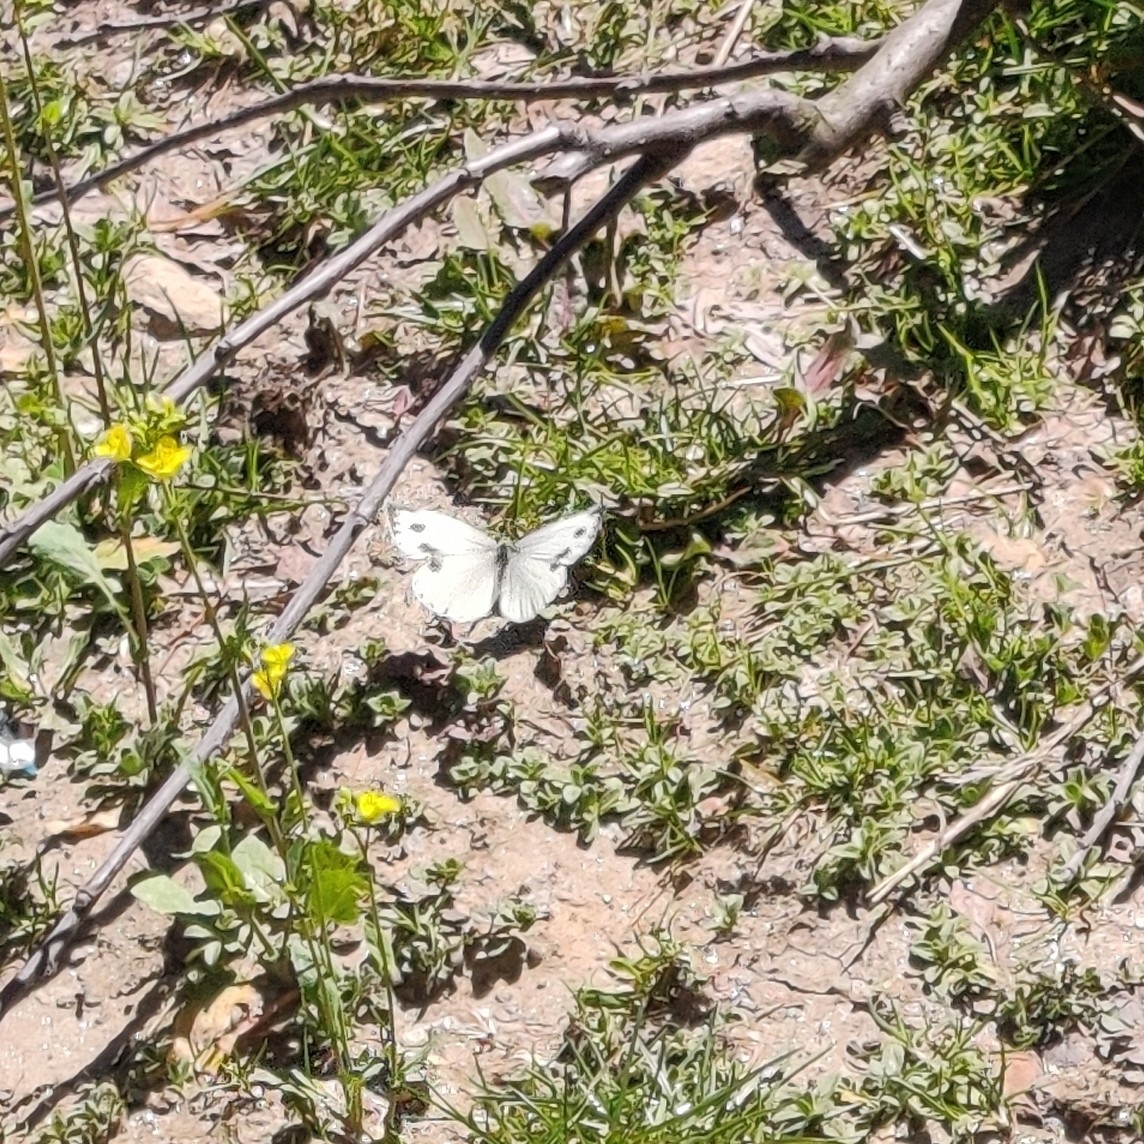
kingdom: Animalia
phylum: Arthropoda
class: Insecta
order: Lepidoptera
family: Pieridae
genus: Pieris
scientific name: Pieris canidia
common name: Indian cabbage white
